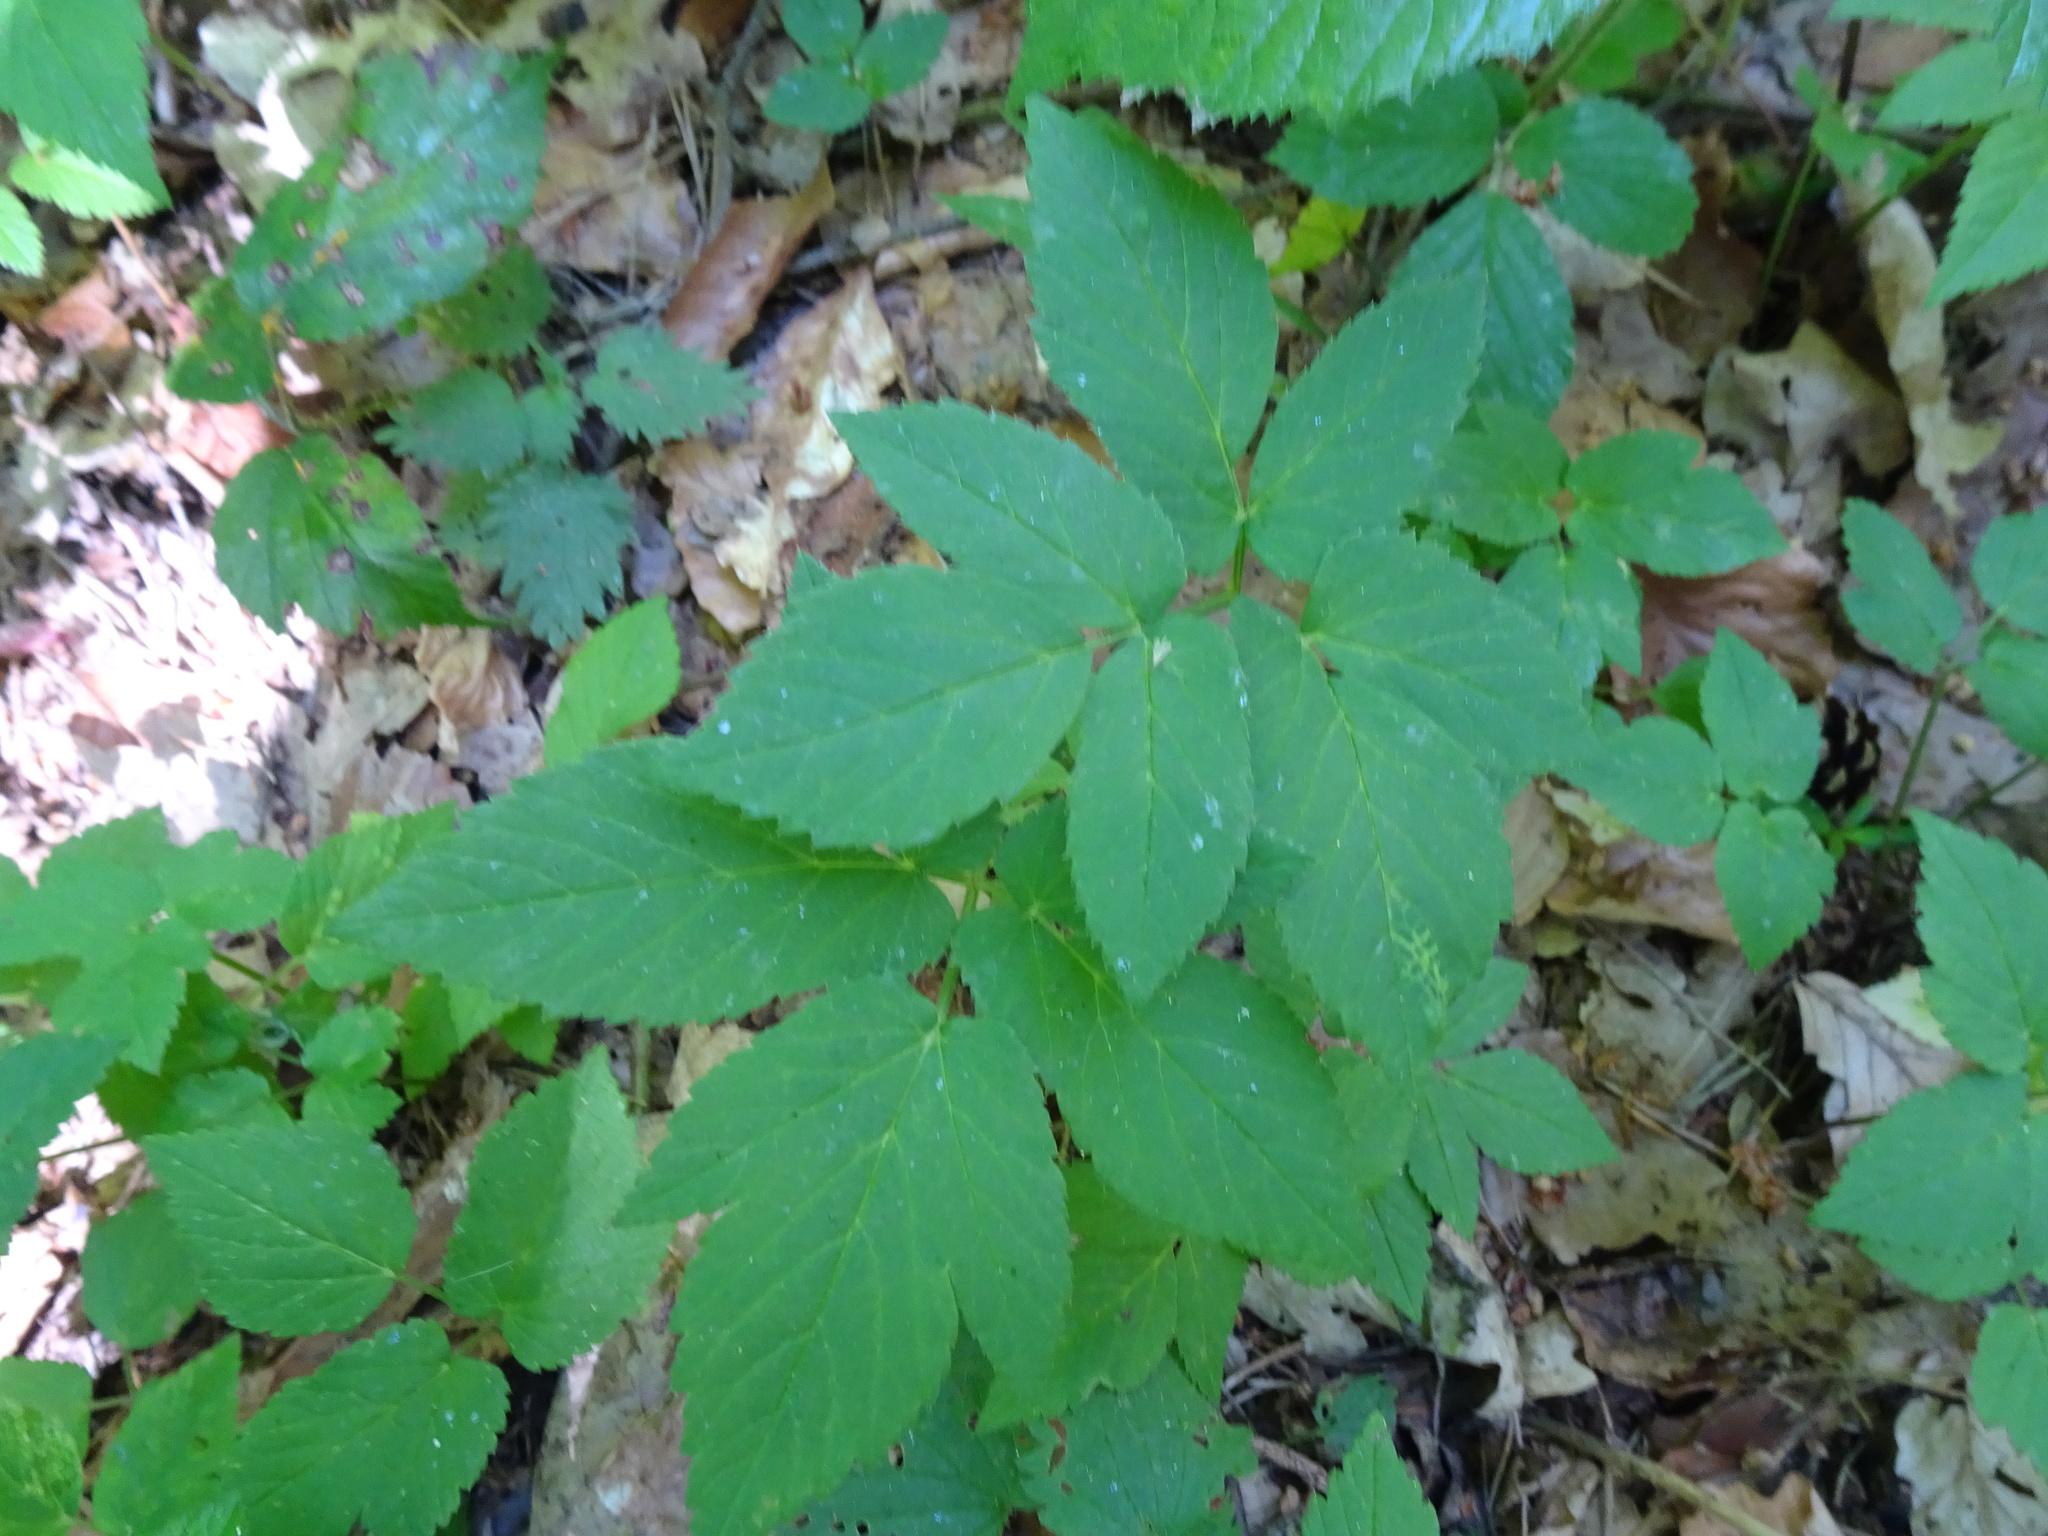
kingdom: Plantae
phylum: Tracheophyta
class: Magnoliopsida
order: Apiales
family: Apiaceae
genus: Aegopodium
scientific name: Aegopodium podagraria
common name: Ground-elder
